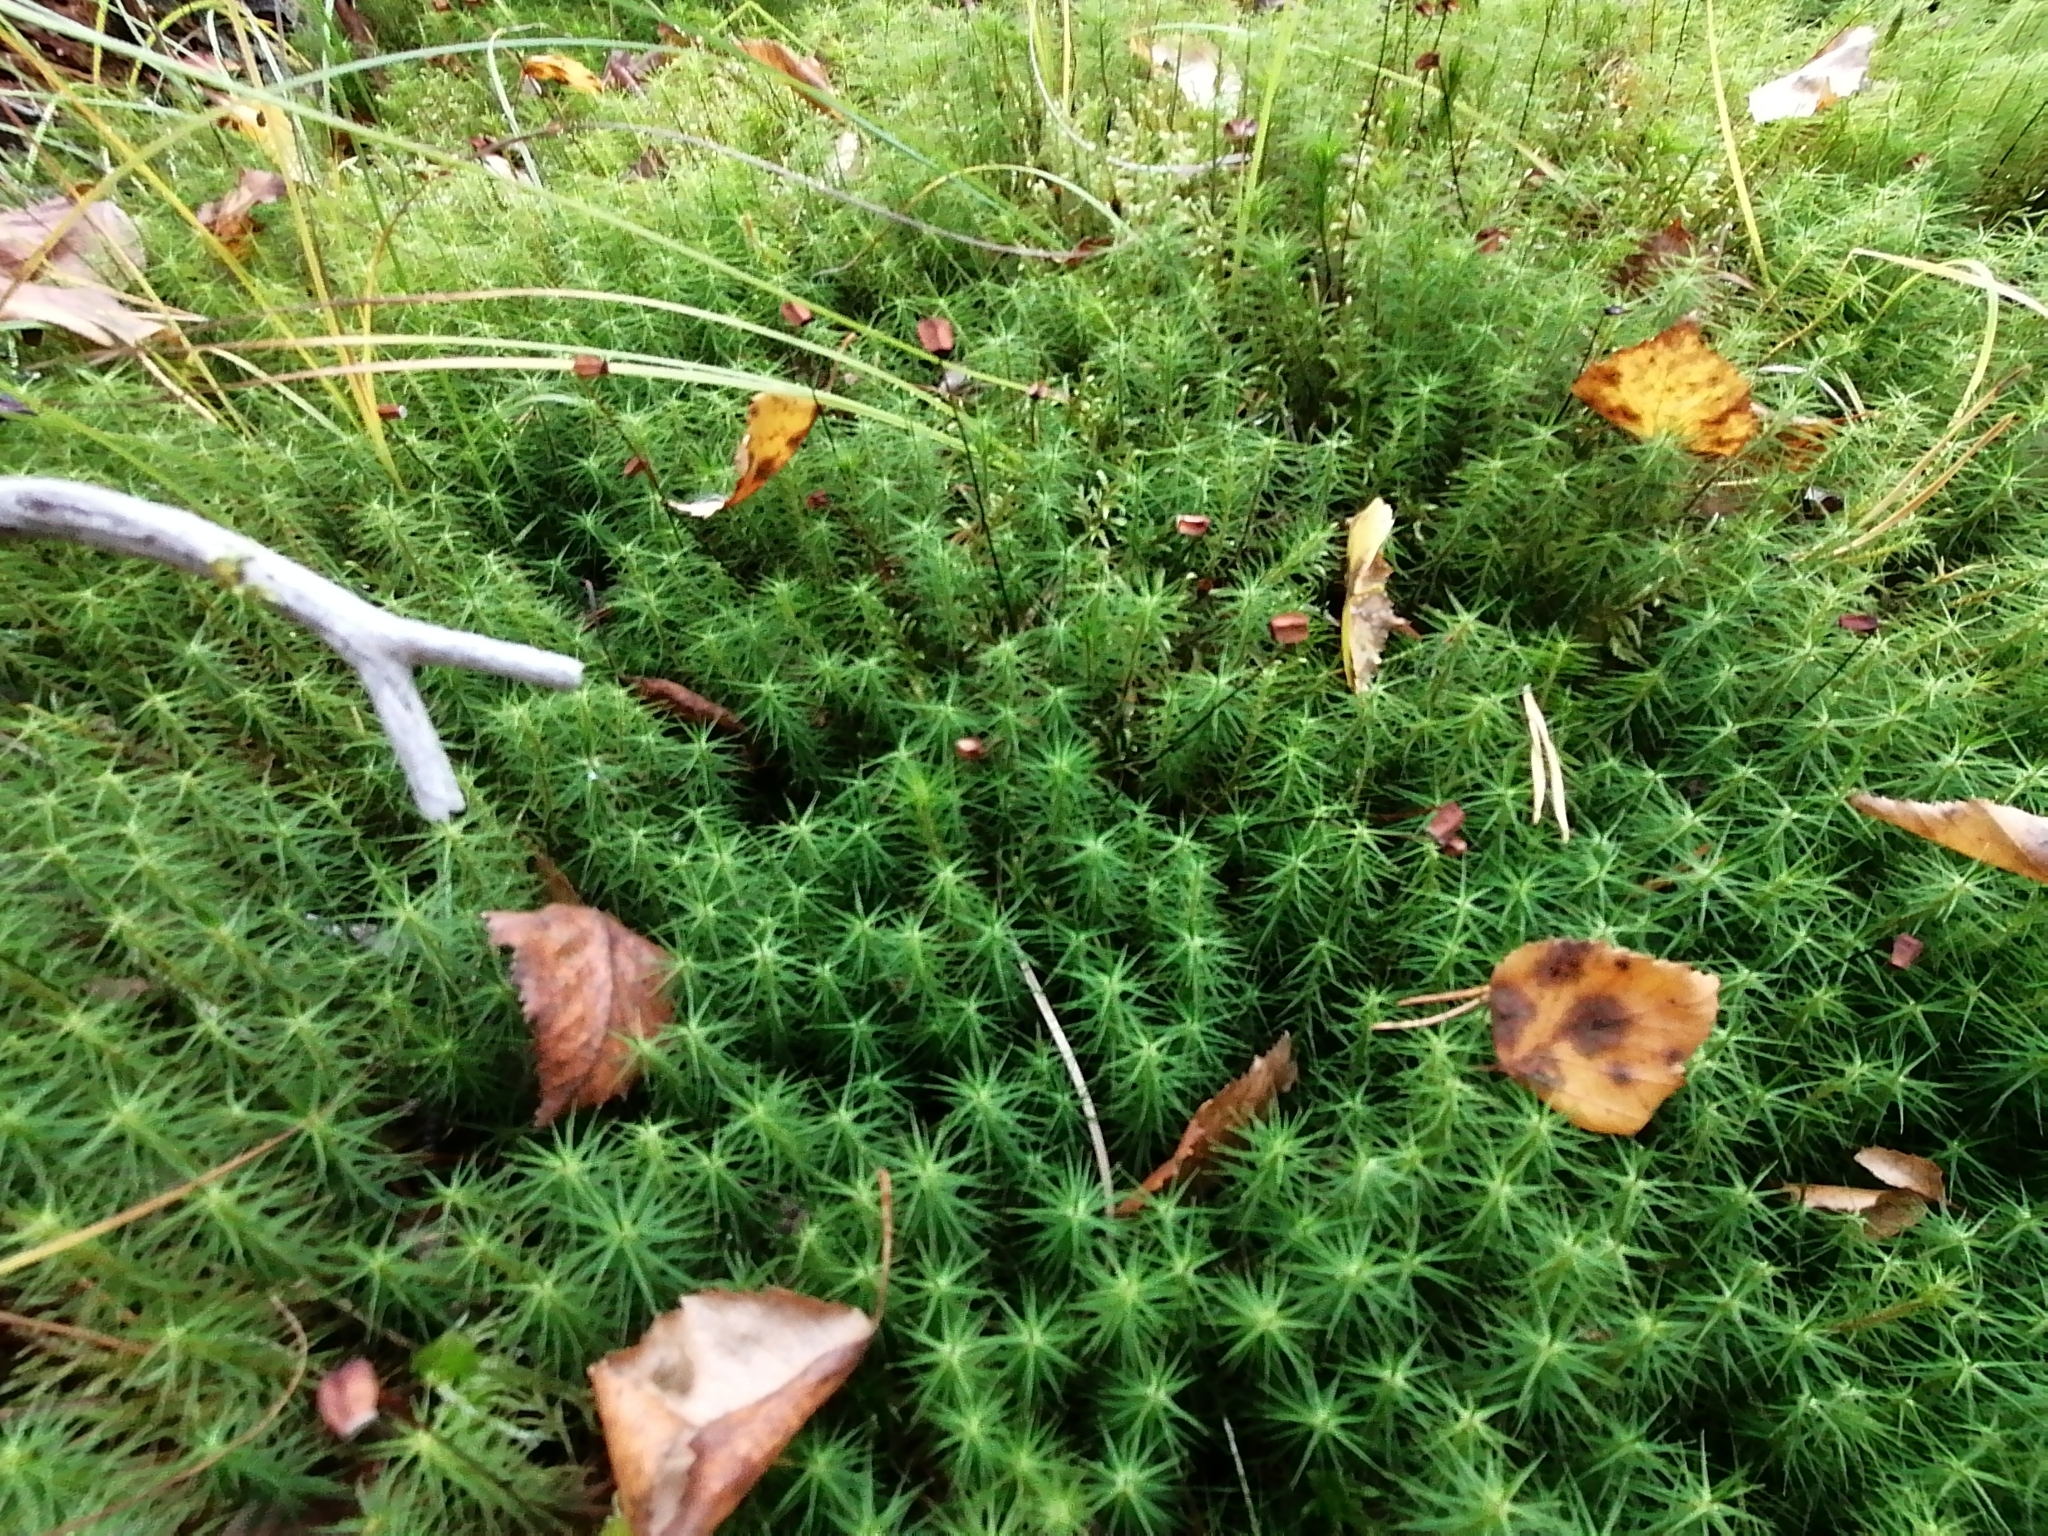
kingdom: Plantae
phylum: Bryophyta
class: Polytrichopsida
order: Polytrichales
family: Polytrichaceae
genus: Polytrichum
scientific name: Polytrichum commune
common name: Common haircap
